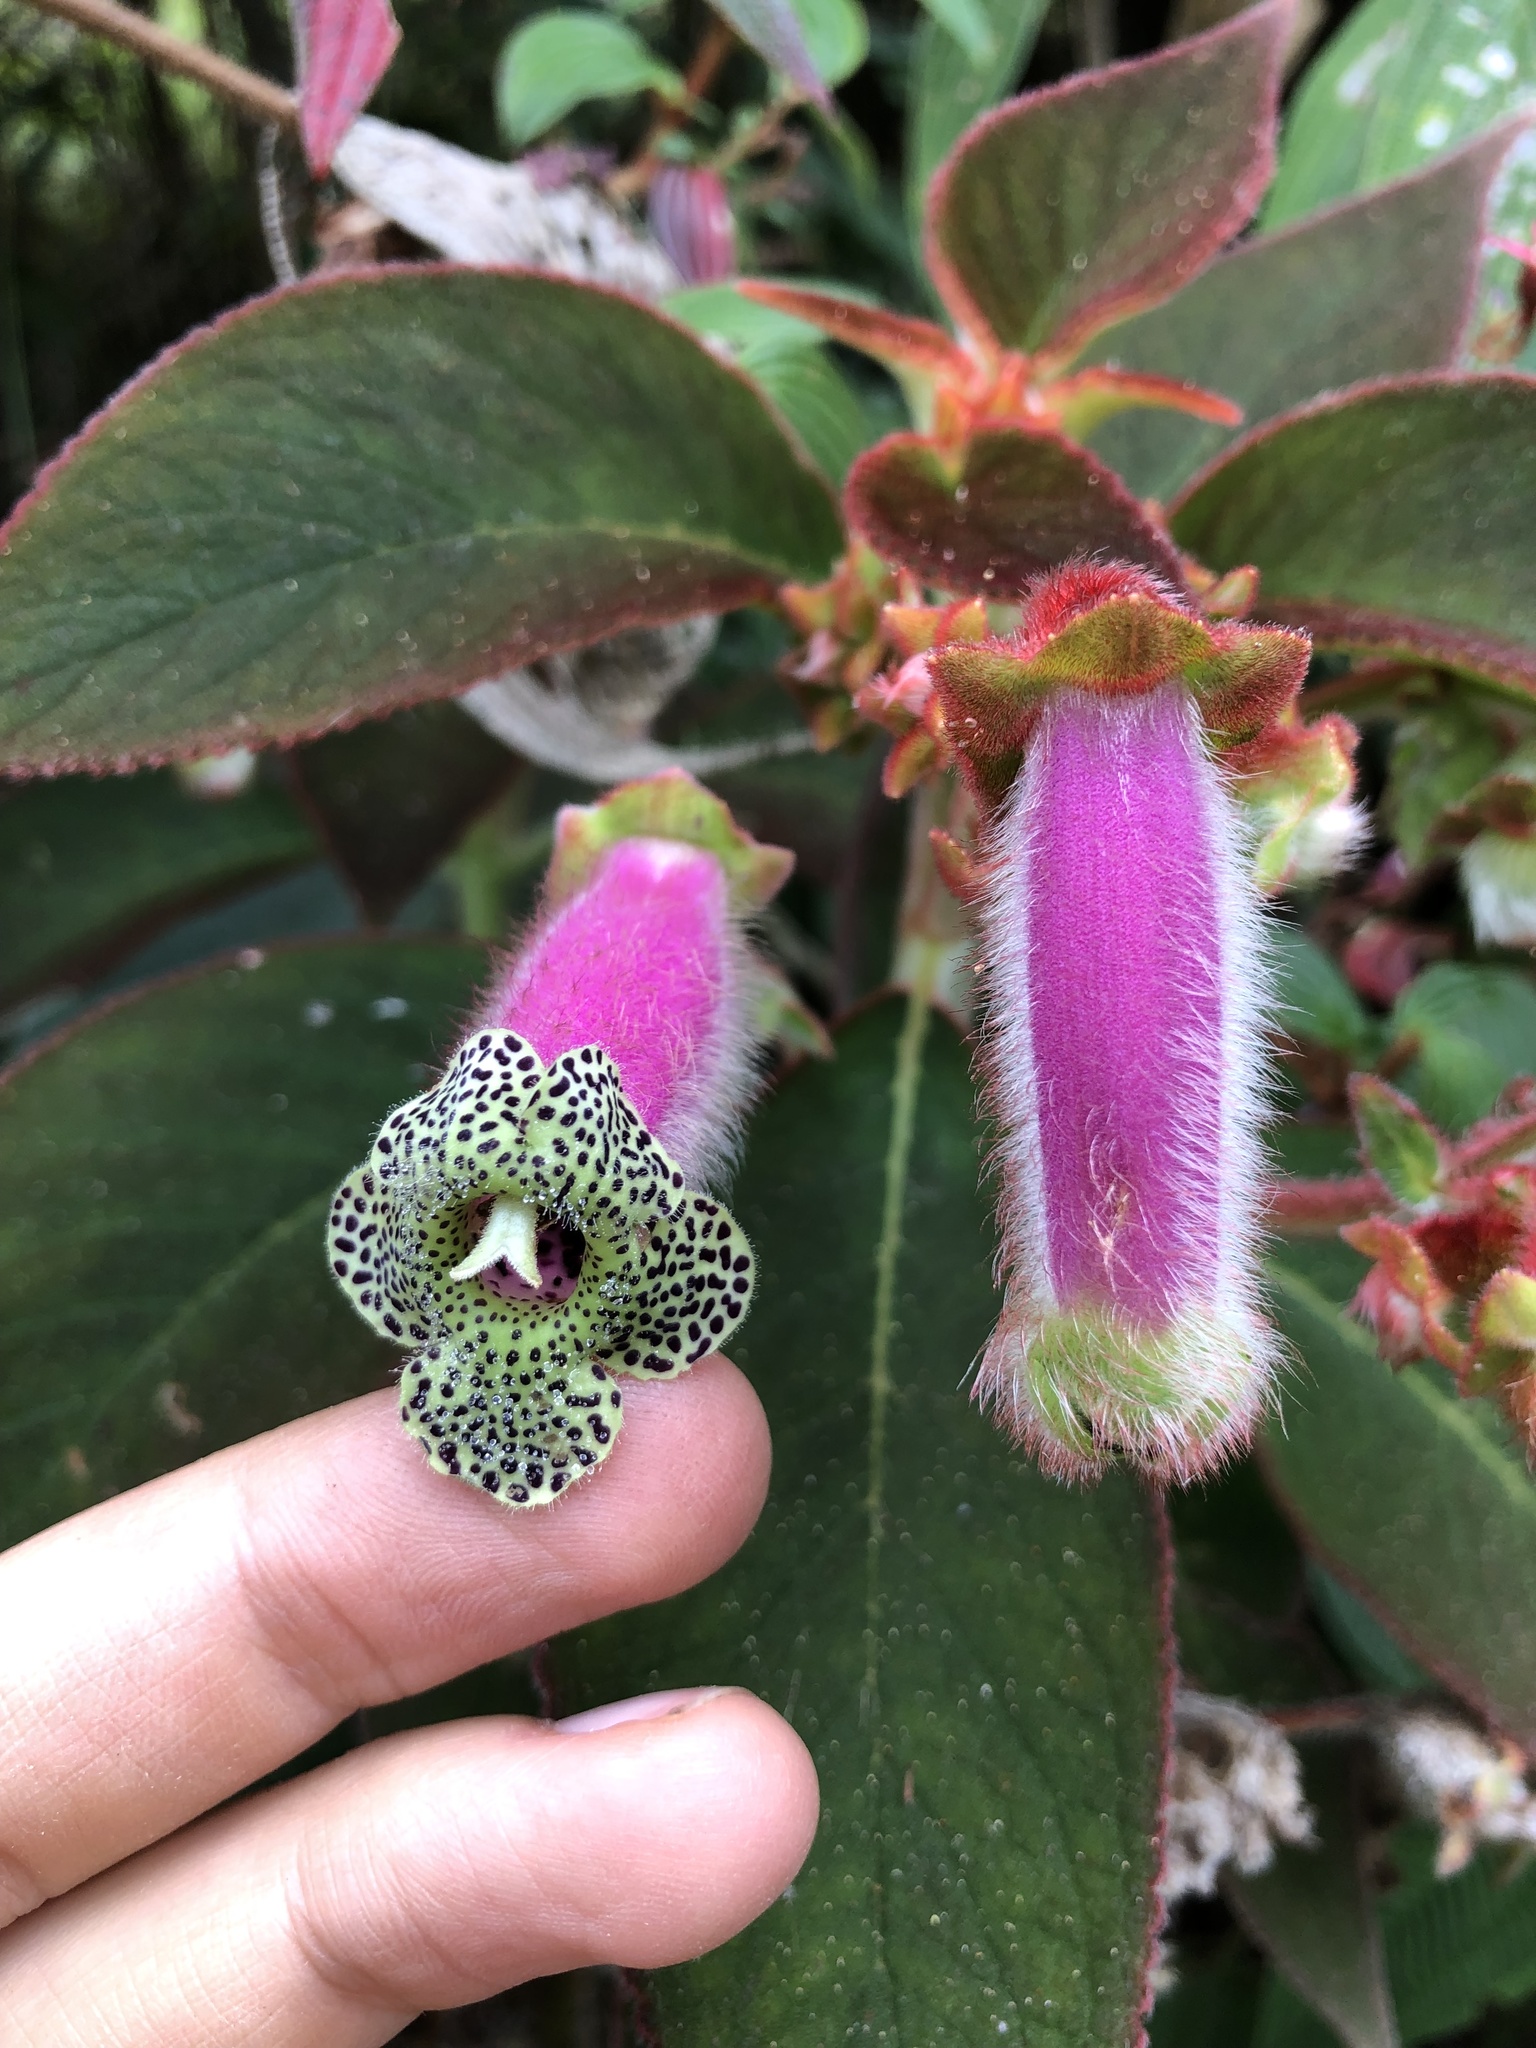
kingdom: Plantae
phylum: Tracheophyta
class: Magnoliopsida
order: Lamiales
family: Gesneriaceae
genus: Kohleria
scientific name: Kohleria warszewiczii
